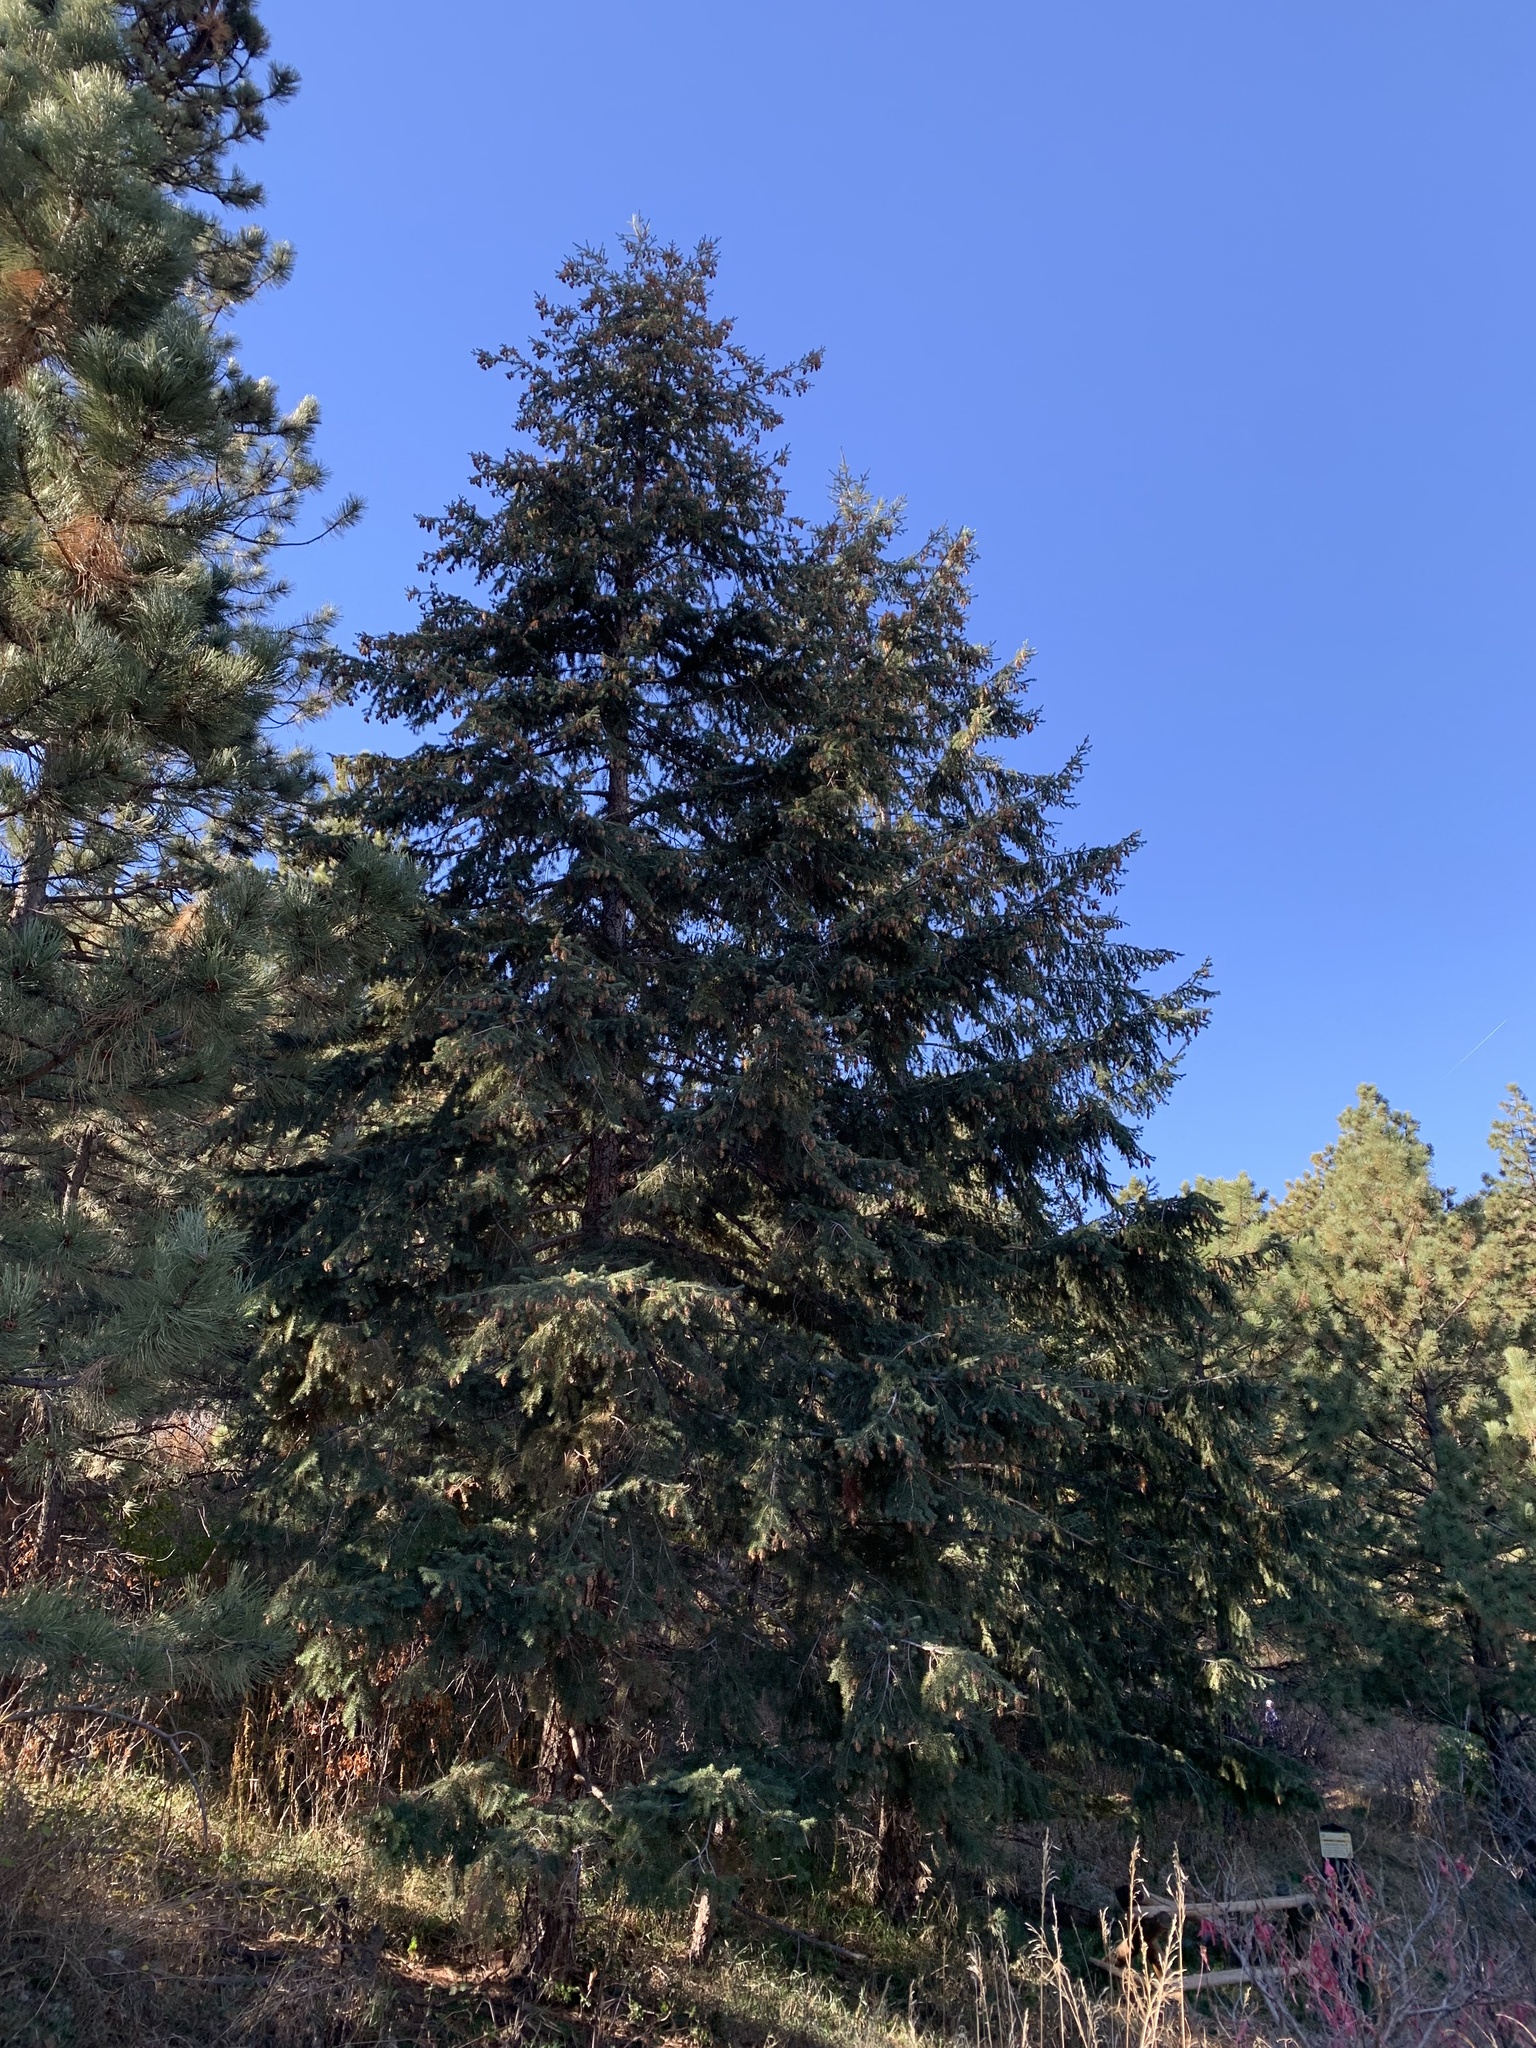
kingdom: Plantae
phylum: Tracheophyta
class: Pinopsida
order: Pinales
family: Pinaceae
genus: Pseudotsuga
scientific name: Pseudotsuga menziesii
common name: Douglas fir
